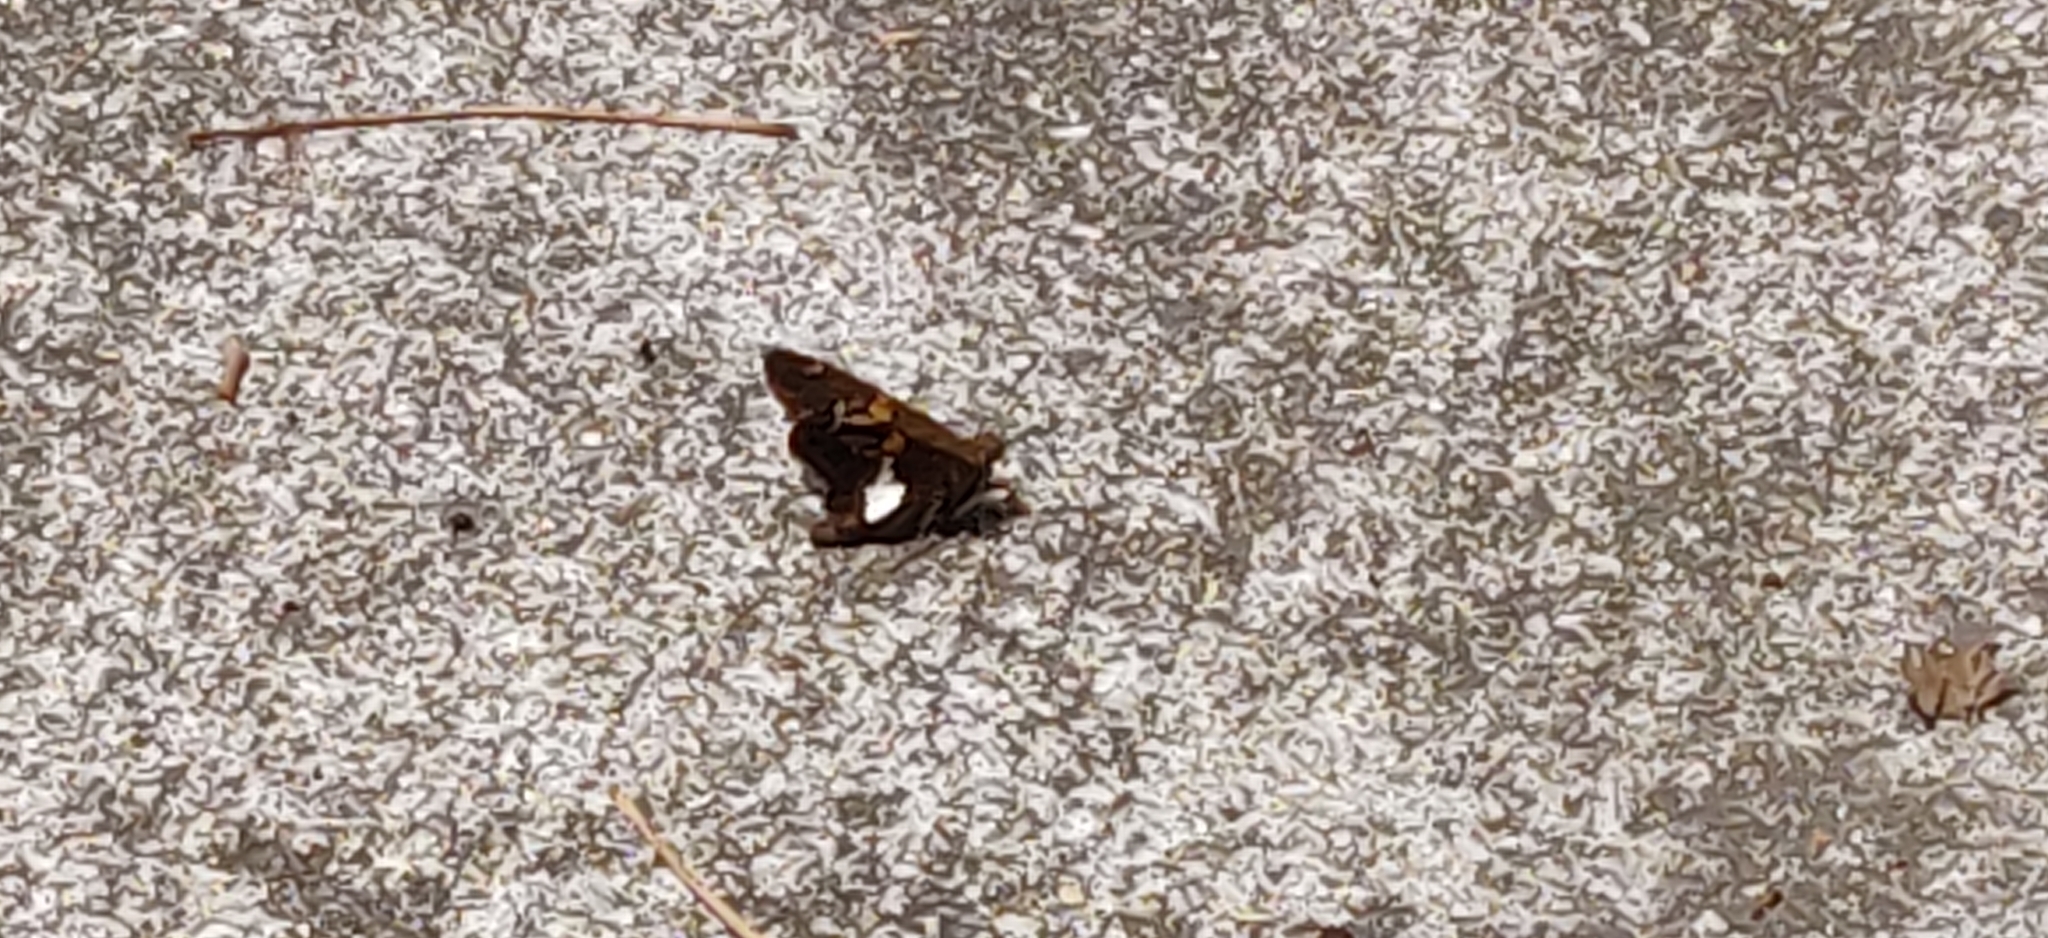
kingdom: Animalia
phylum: Arthropoda
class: Insecta
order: Lepidoptera
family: Hesperiidae
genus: Epargyreus
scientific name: Epargyreus clarus
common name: Silver-spotted skipper
